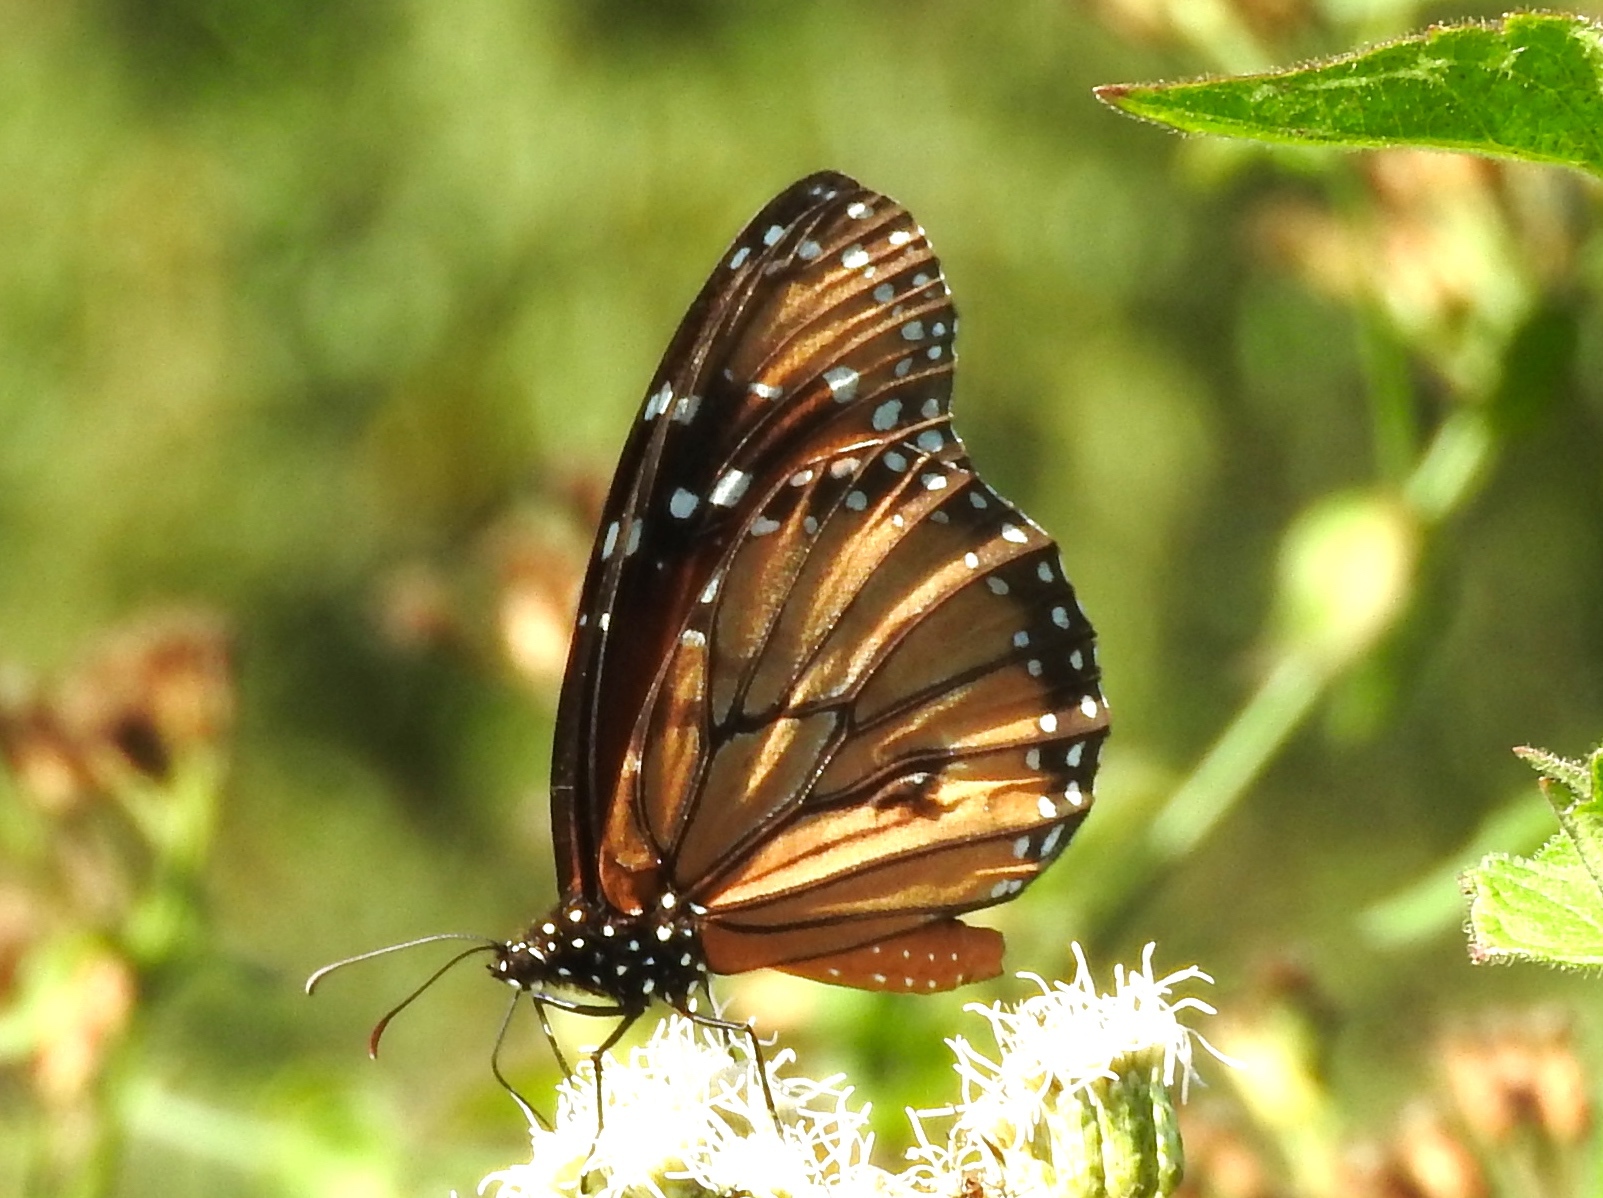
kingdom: Animalia
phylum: Arthropoda
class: Insecta
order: Lepidoptera
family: Nymphalidae
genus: Danaus
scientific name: Danaus eresimus
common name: Soldier
